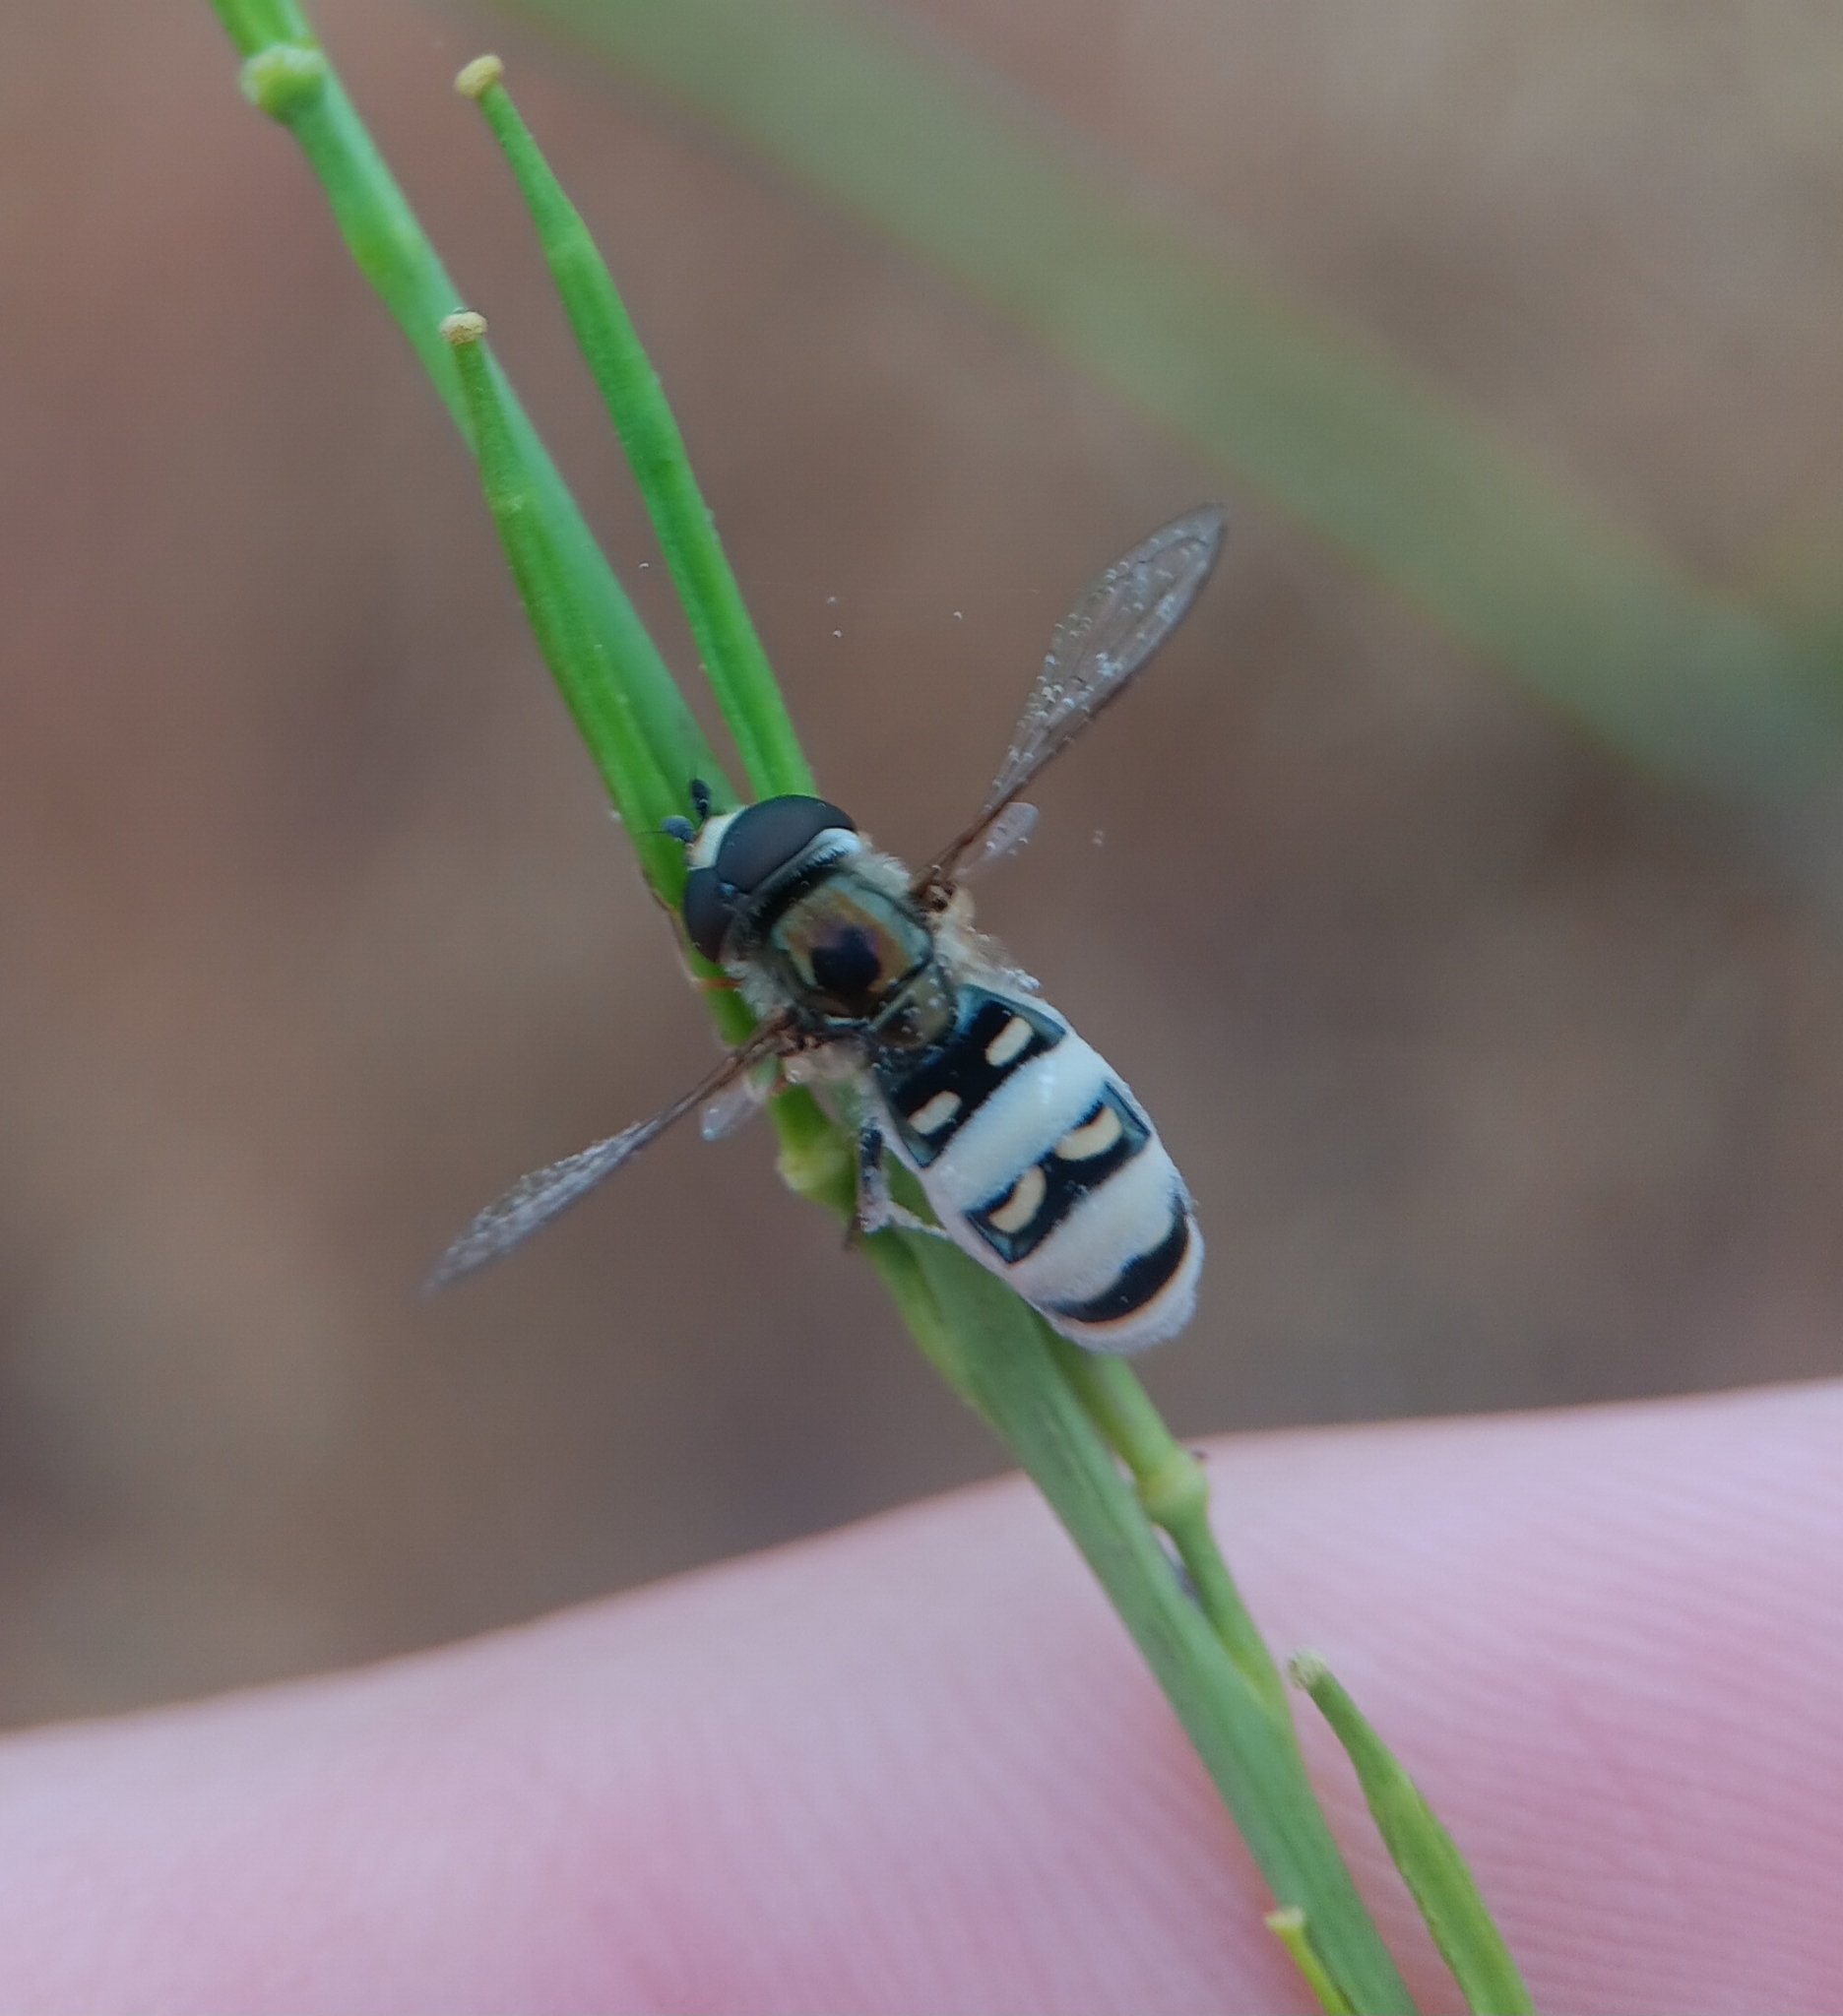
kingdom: Animalia
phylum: Arthropoda
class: Insecta
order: Diptera
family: Syrphidae
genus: Eupeodes
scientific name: Eupeodes volucris
